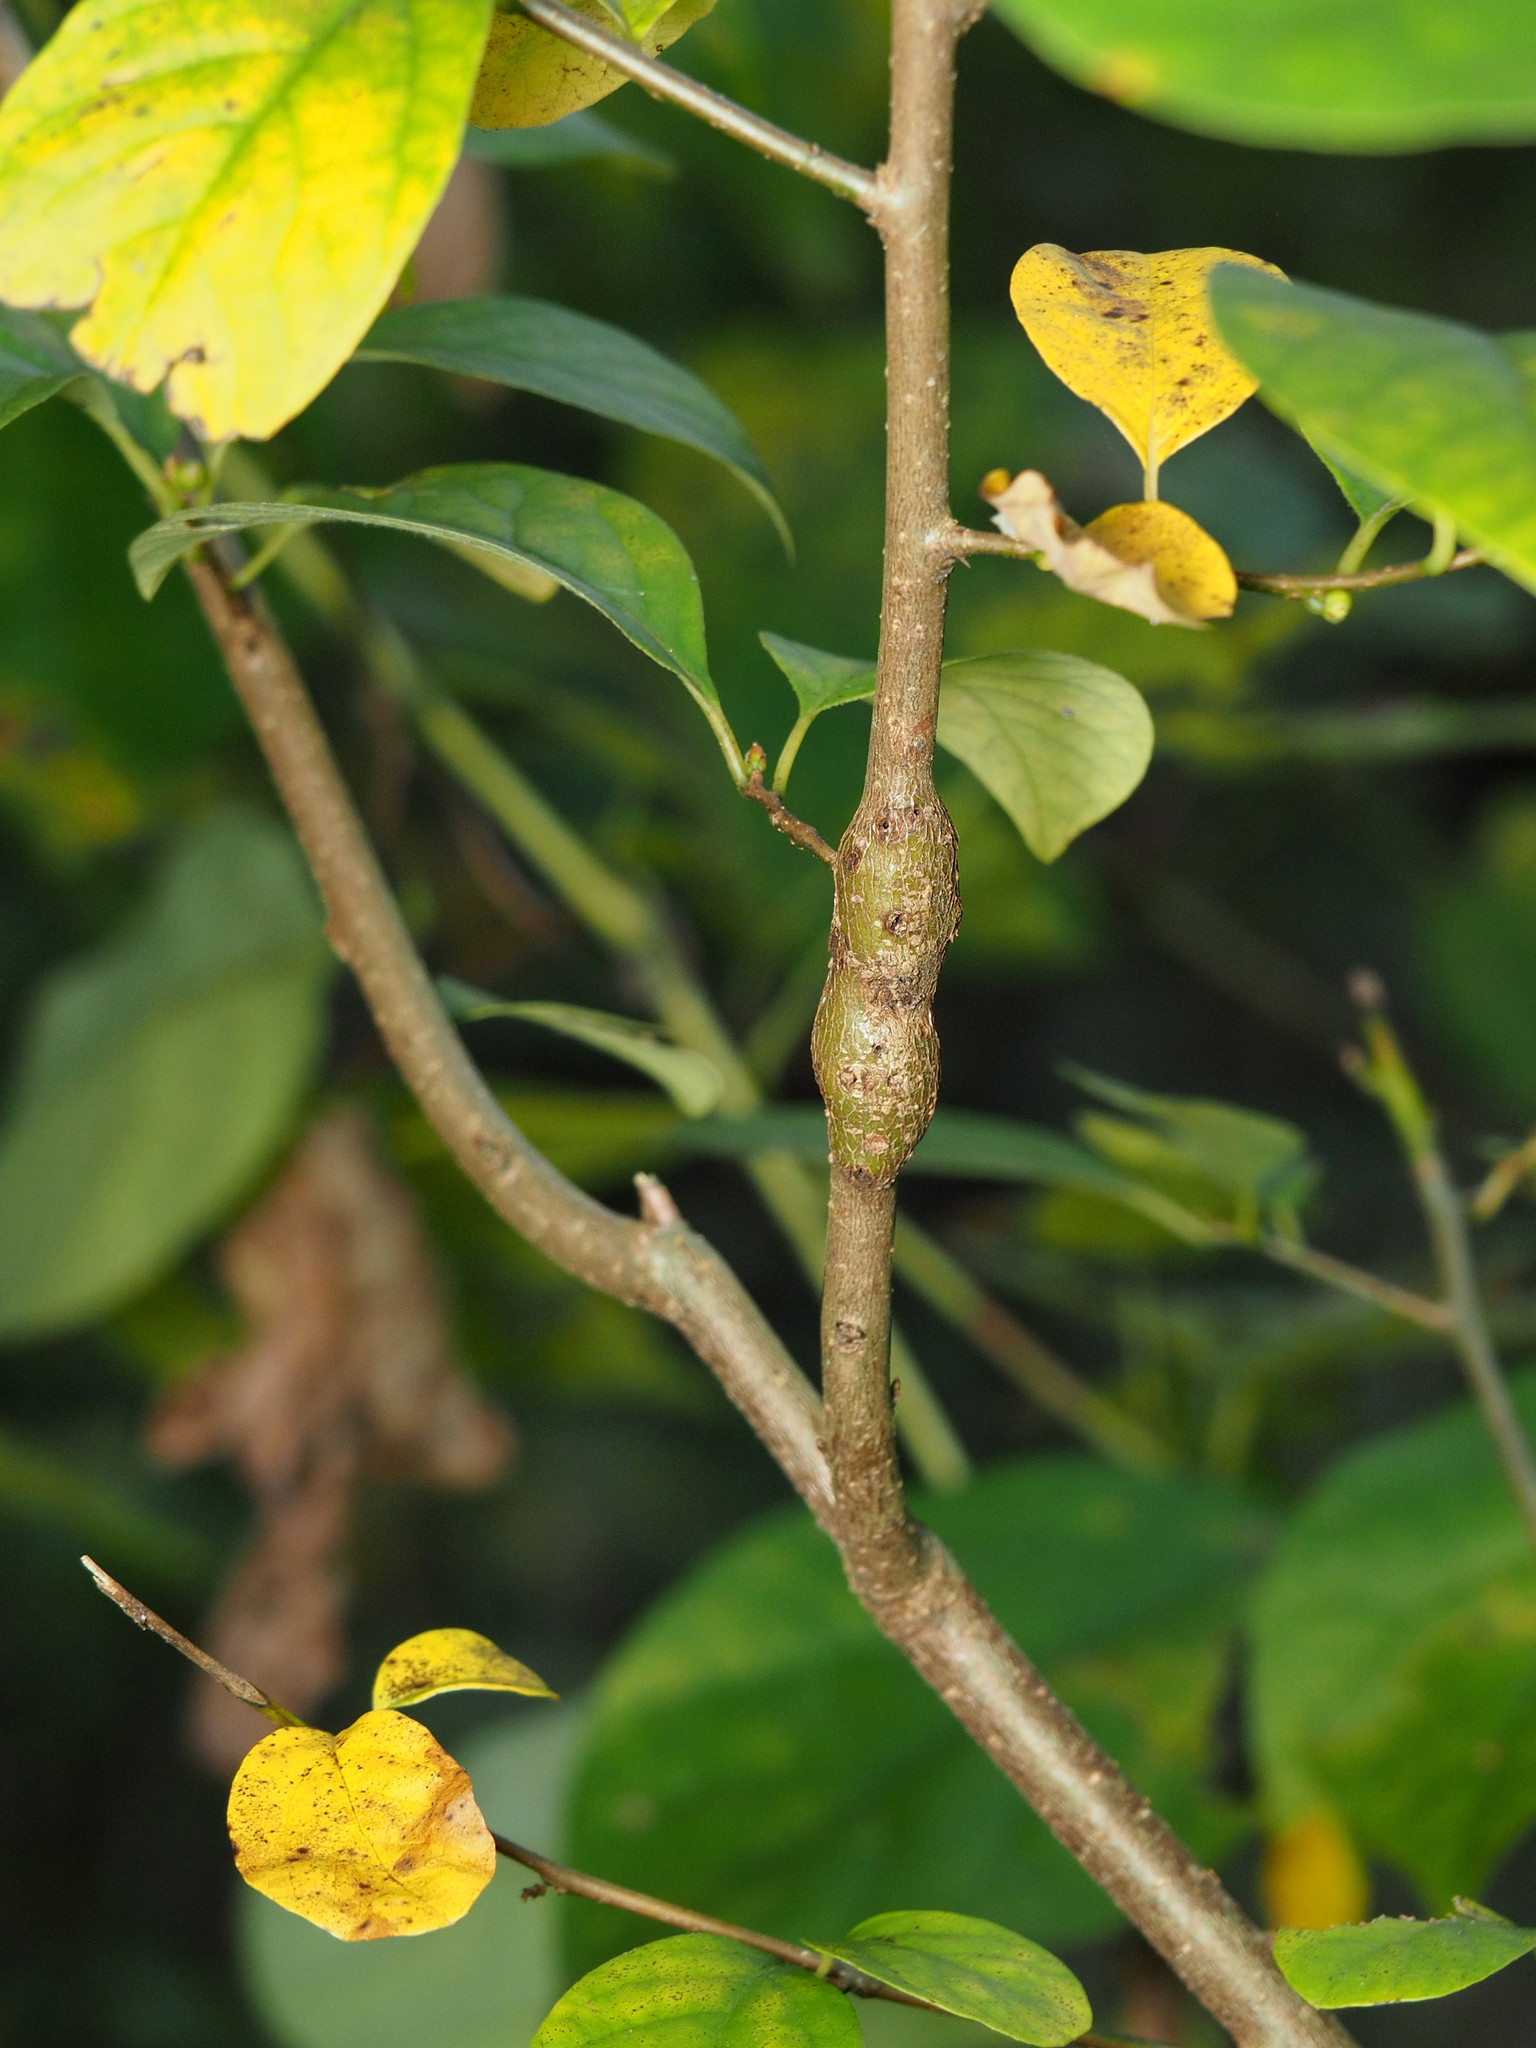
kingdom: Animalia
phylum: Arthropoda
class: Insecta
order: Diptera
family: Cecidomyiidae
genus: Neolasioptera
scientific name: Neolasioptera linderae
